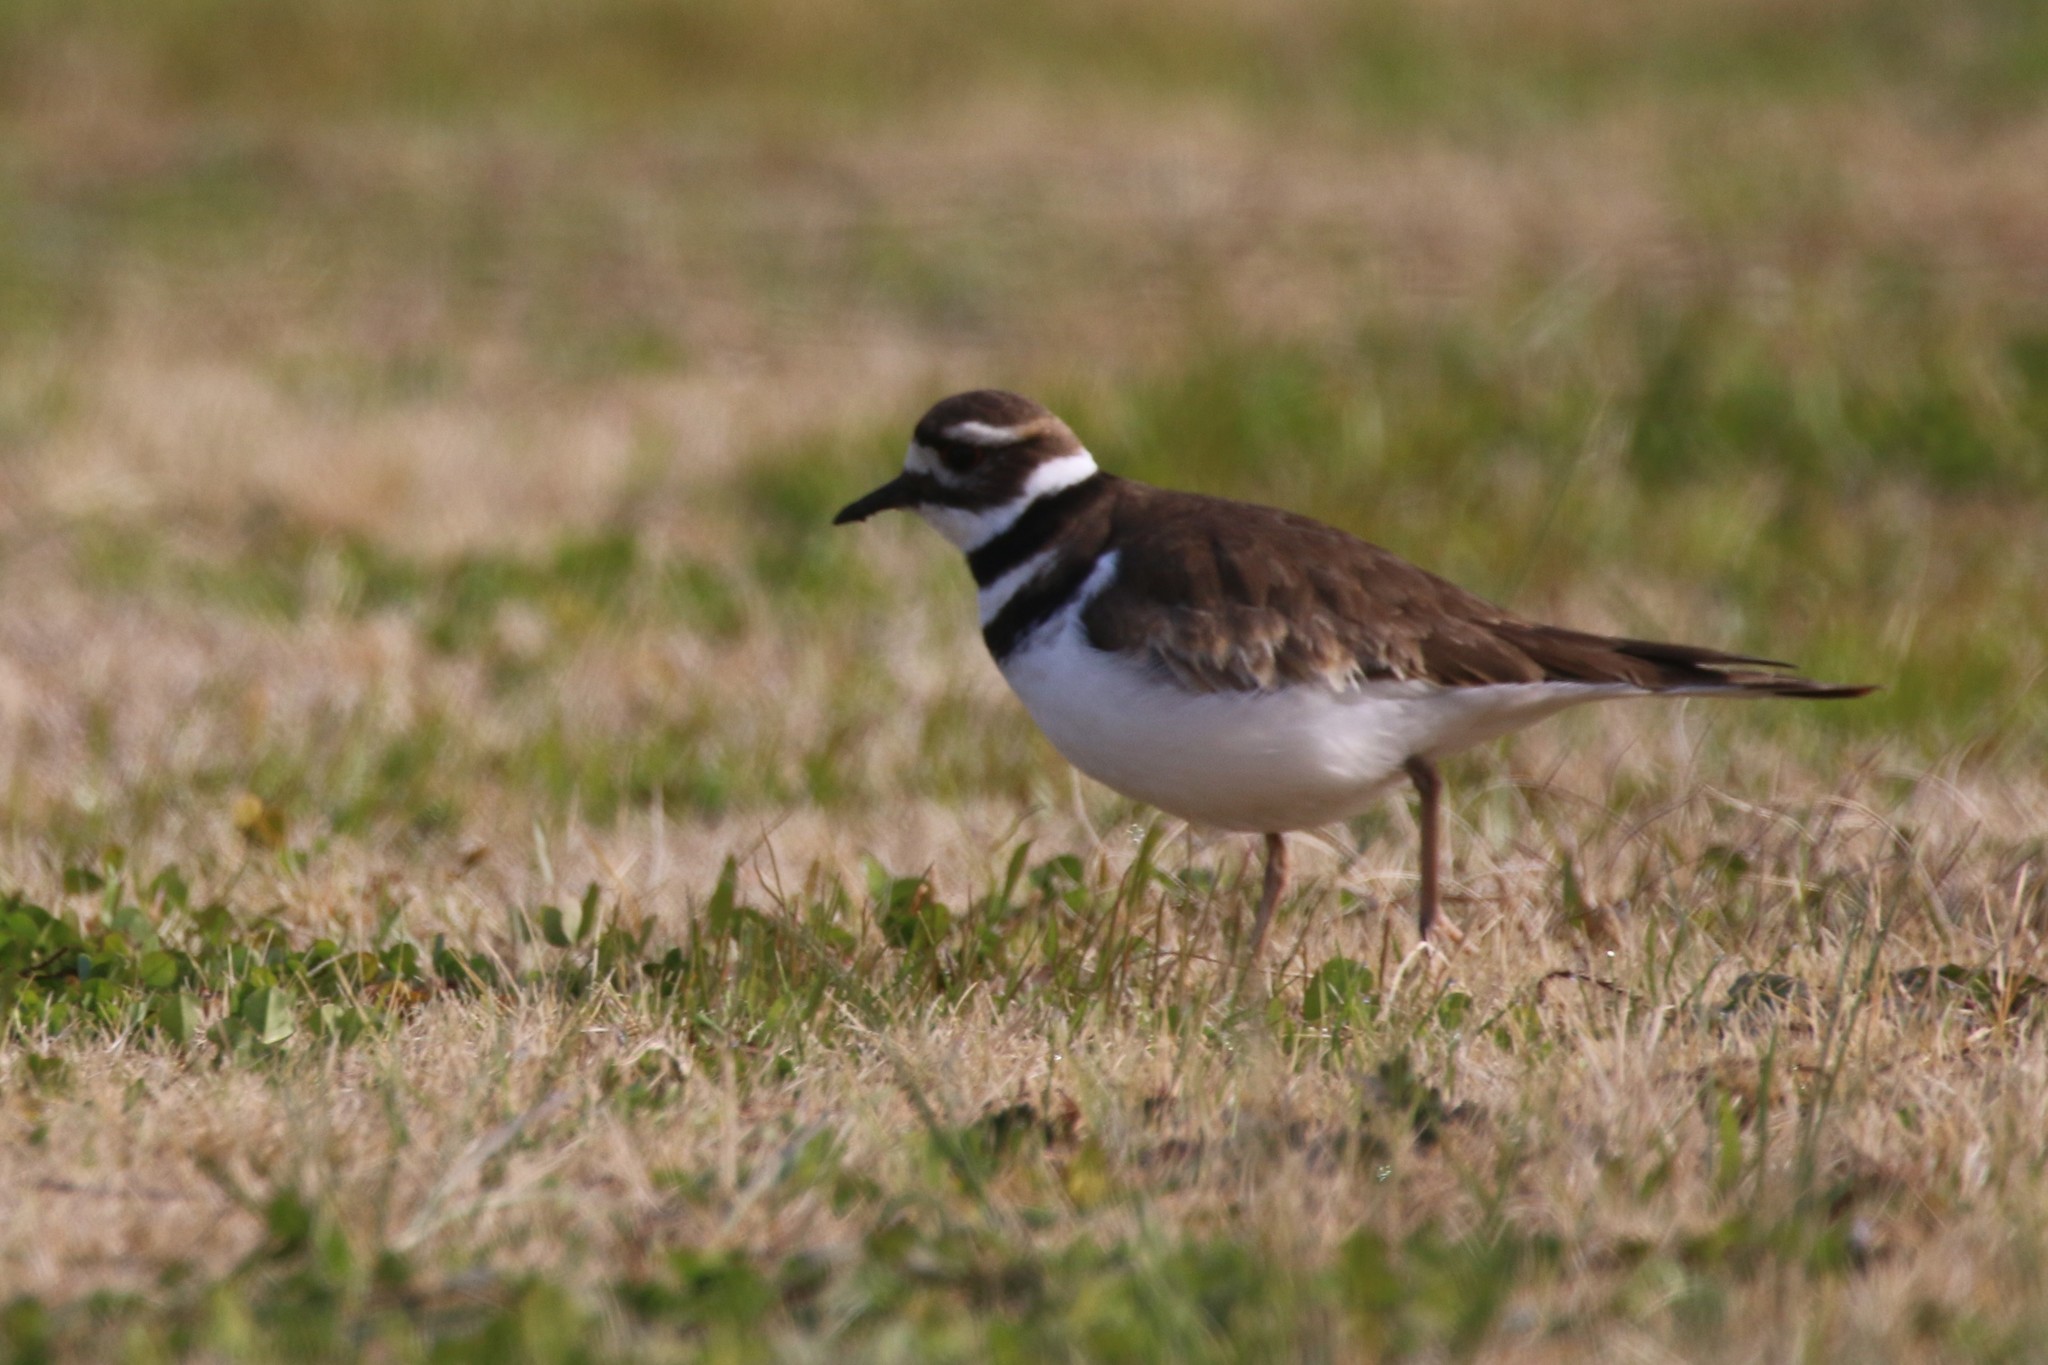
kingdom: Animalia
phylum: Chordata
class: Aves
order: Charadriiformes
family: Charadriidae
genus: Charadrius
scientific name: Charadrius vociferus
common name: Killdeer
